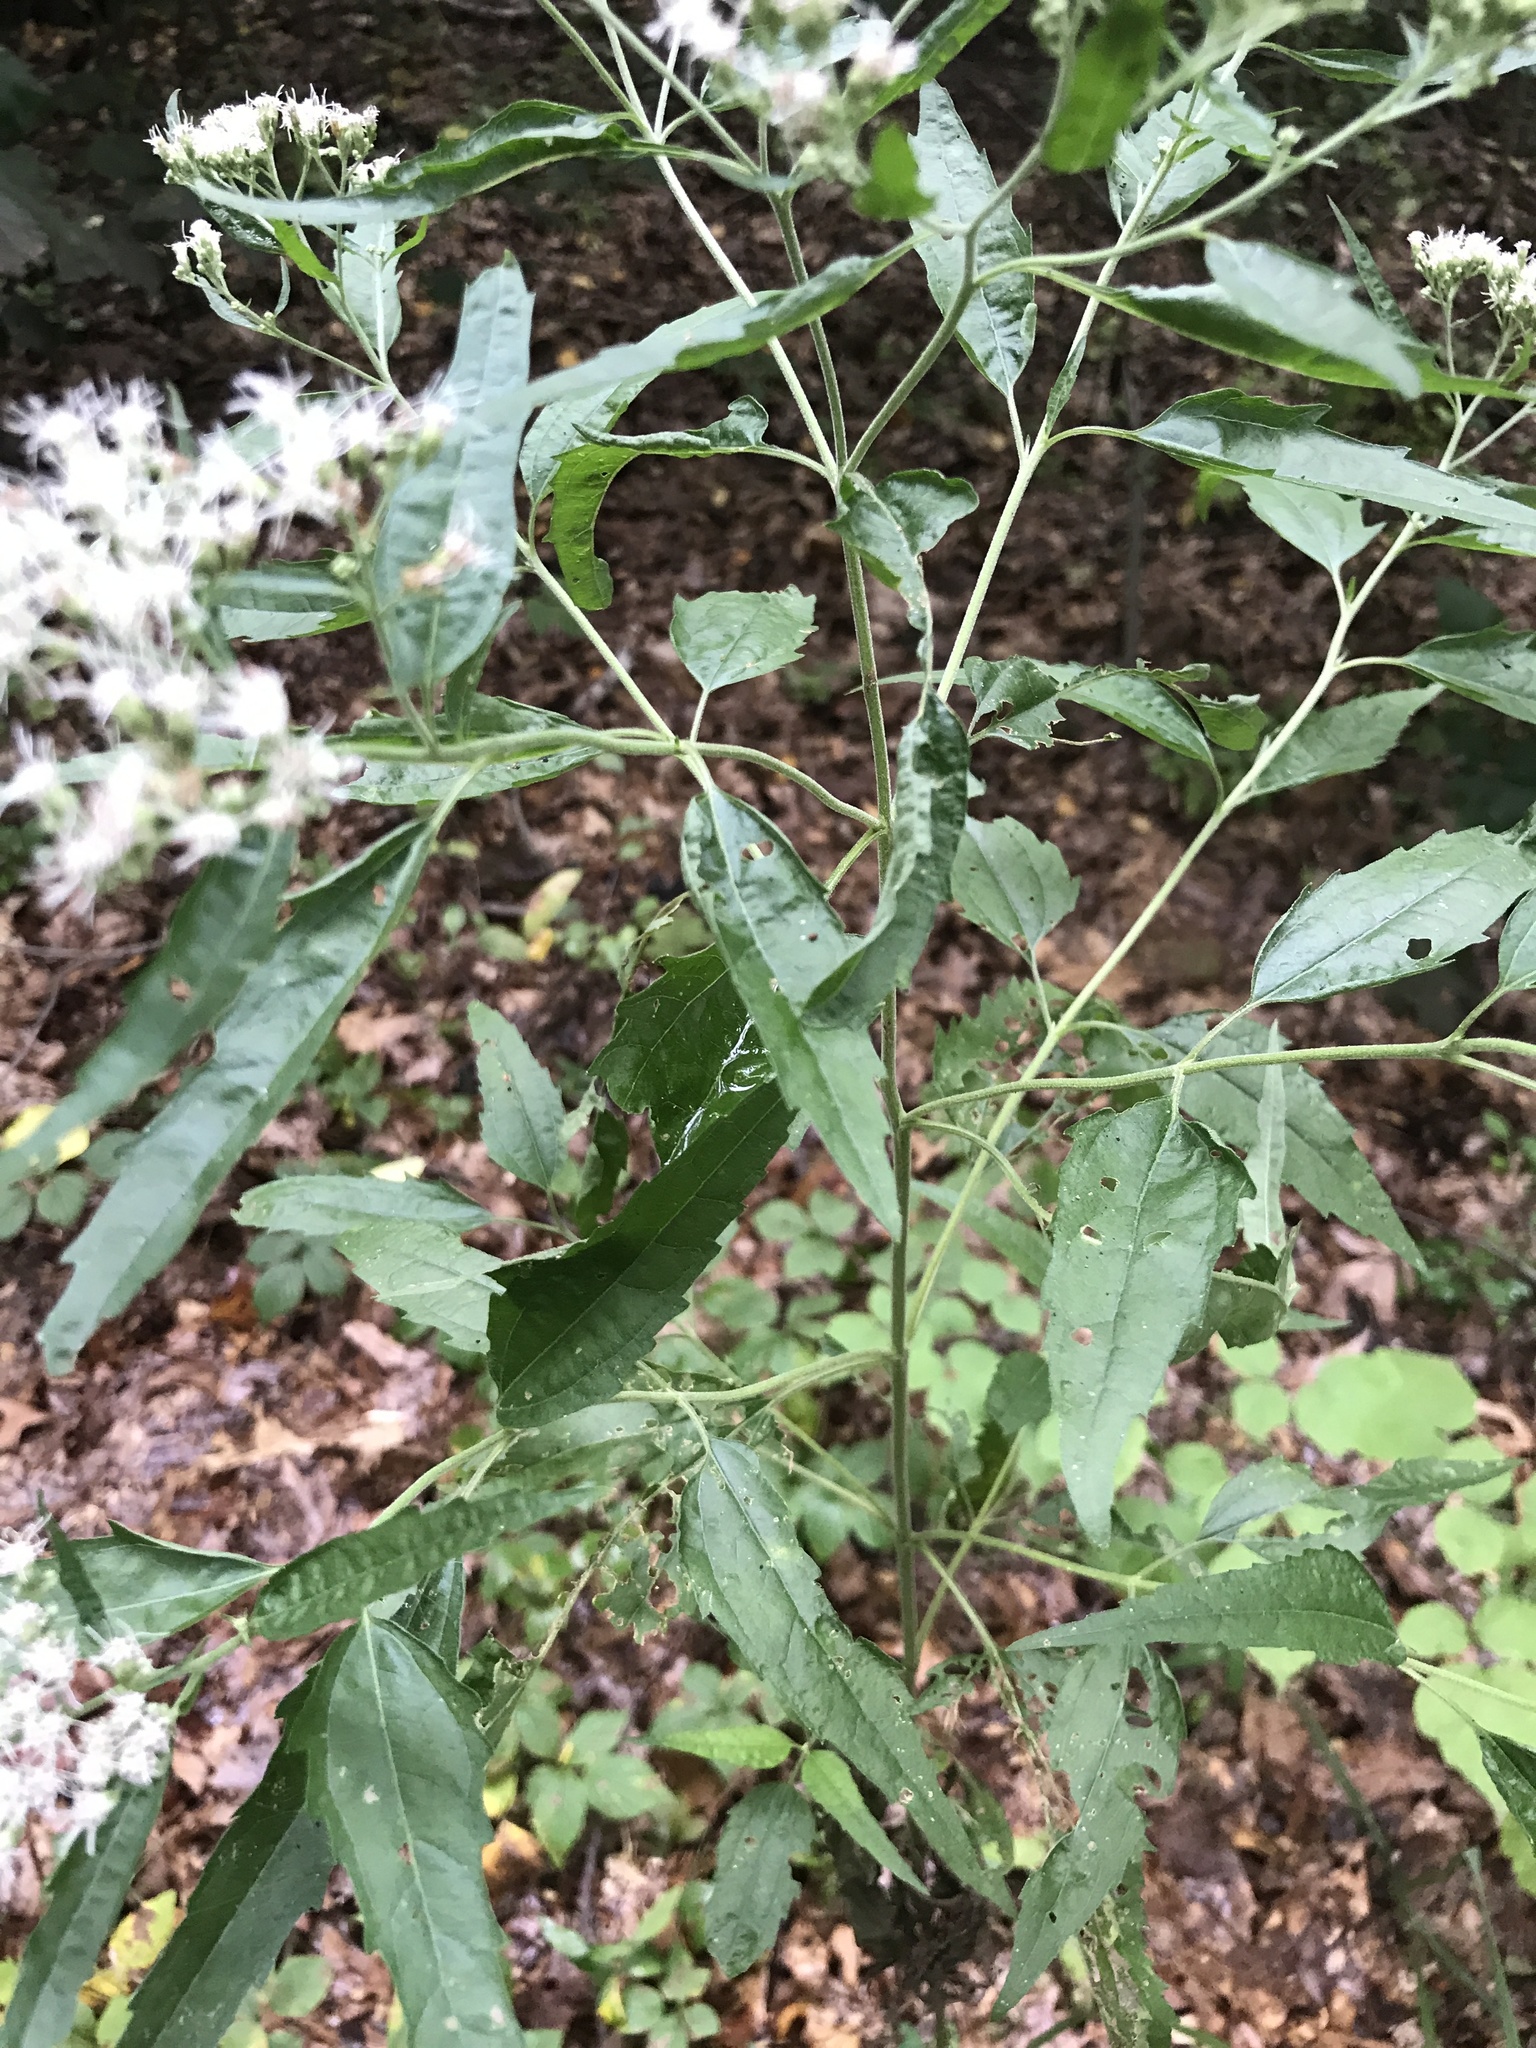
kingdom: Plantae
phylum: Tracheophyta
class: Magnoliopsida
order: Asterales
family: Asteraceae
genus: Eupatorium
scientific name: Eupatorium serotinum
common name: Late boneset
